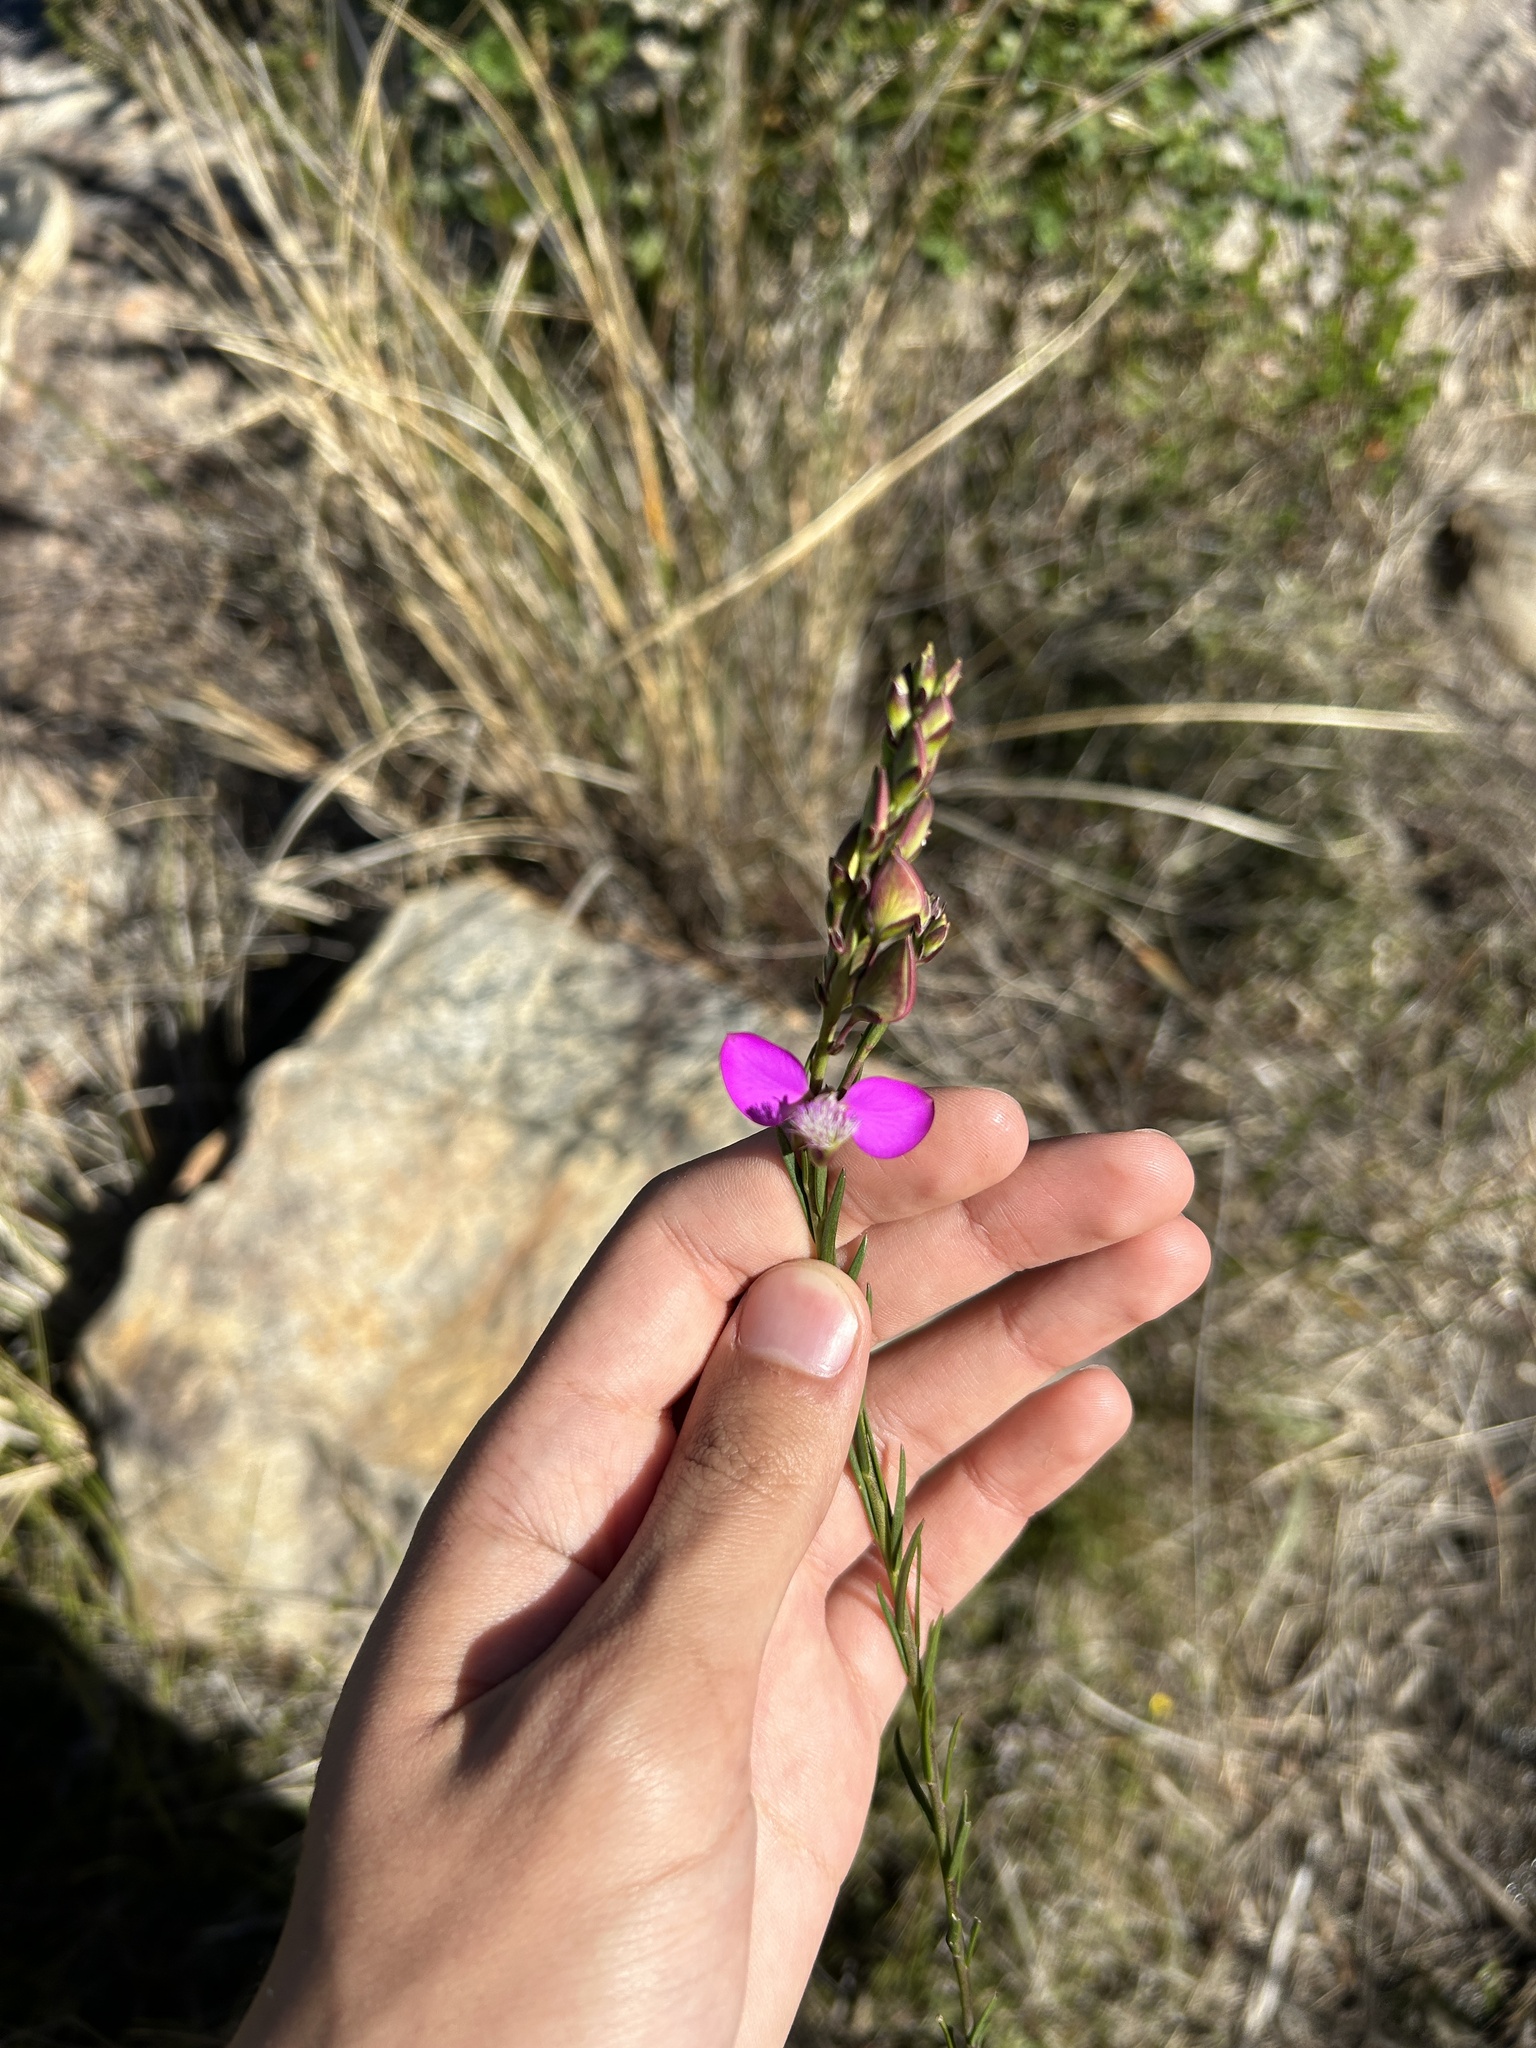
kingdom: Plantae
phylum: Tracheophyta
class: Magnoliopsida
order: Fabales
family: Polygalaceae
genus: Polygala
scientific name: Polygala bracteolata
